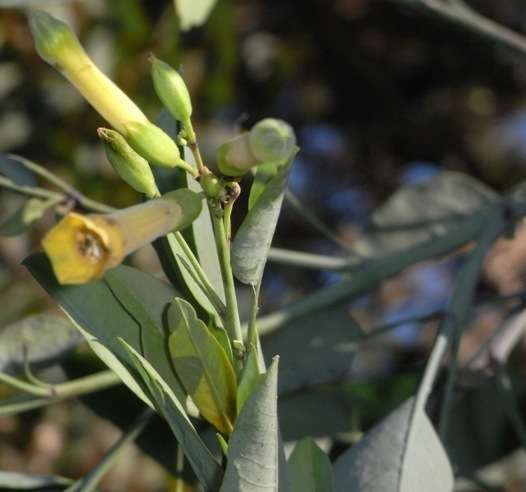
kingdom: Plantae
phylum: Tracheophyta
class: Magnoliopsida
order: Solanales
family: Solanaceae
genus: Nicotiana
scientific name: Nicotiana glauca
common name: Tree tobacco
